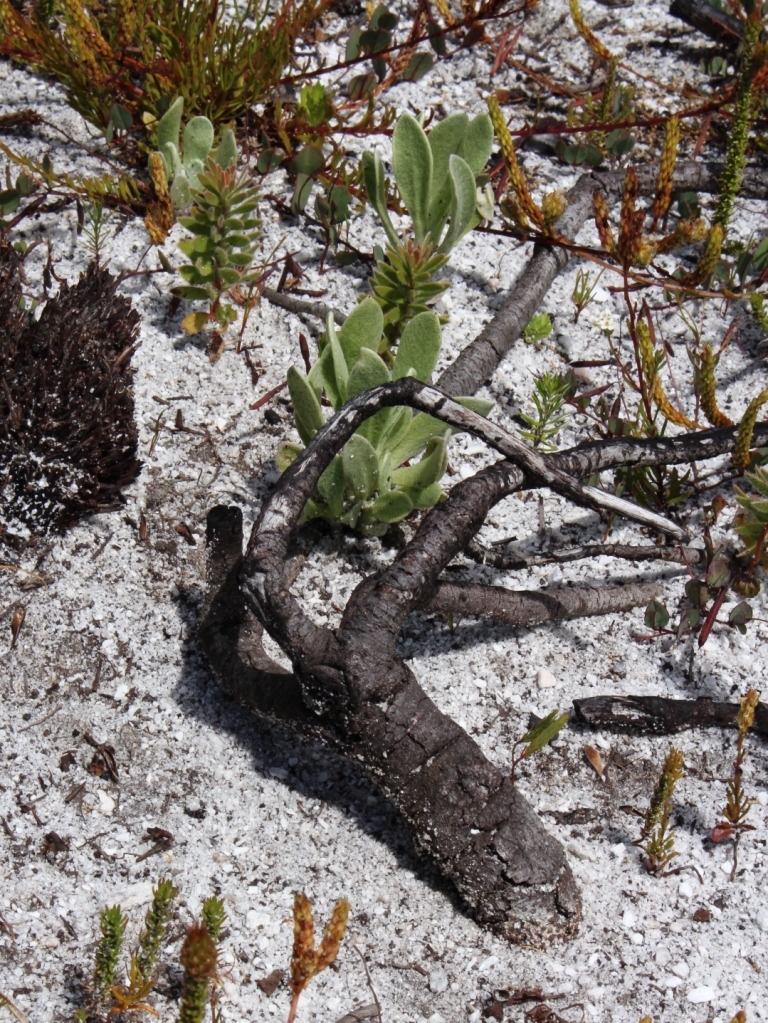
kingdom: Plantae
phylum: Tracheophyta
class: Magnoliopsida
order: Proteales
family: Proteaceae
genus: Diastella
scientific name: Diastella divaricata
